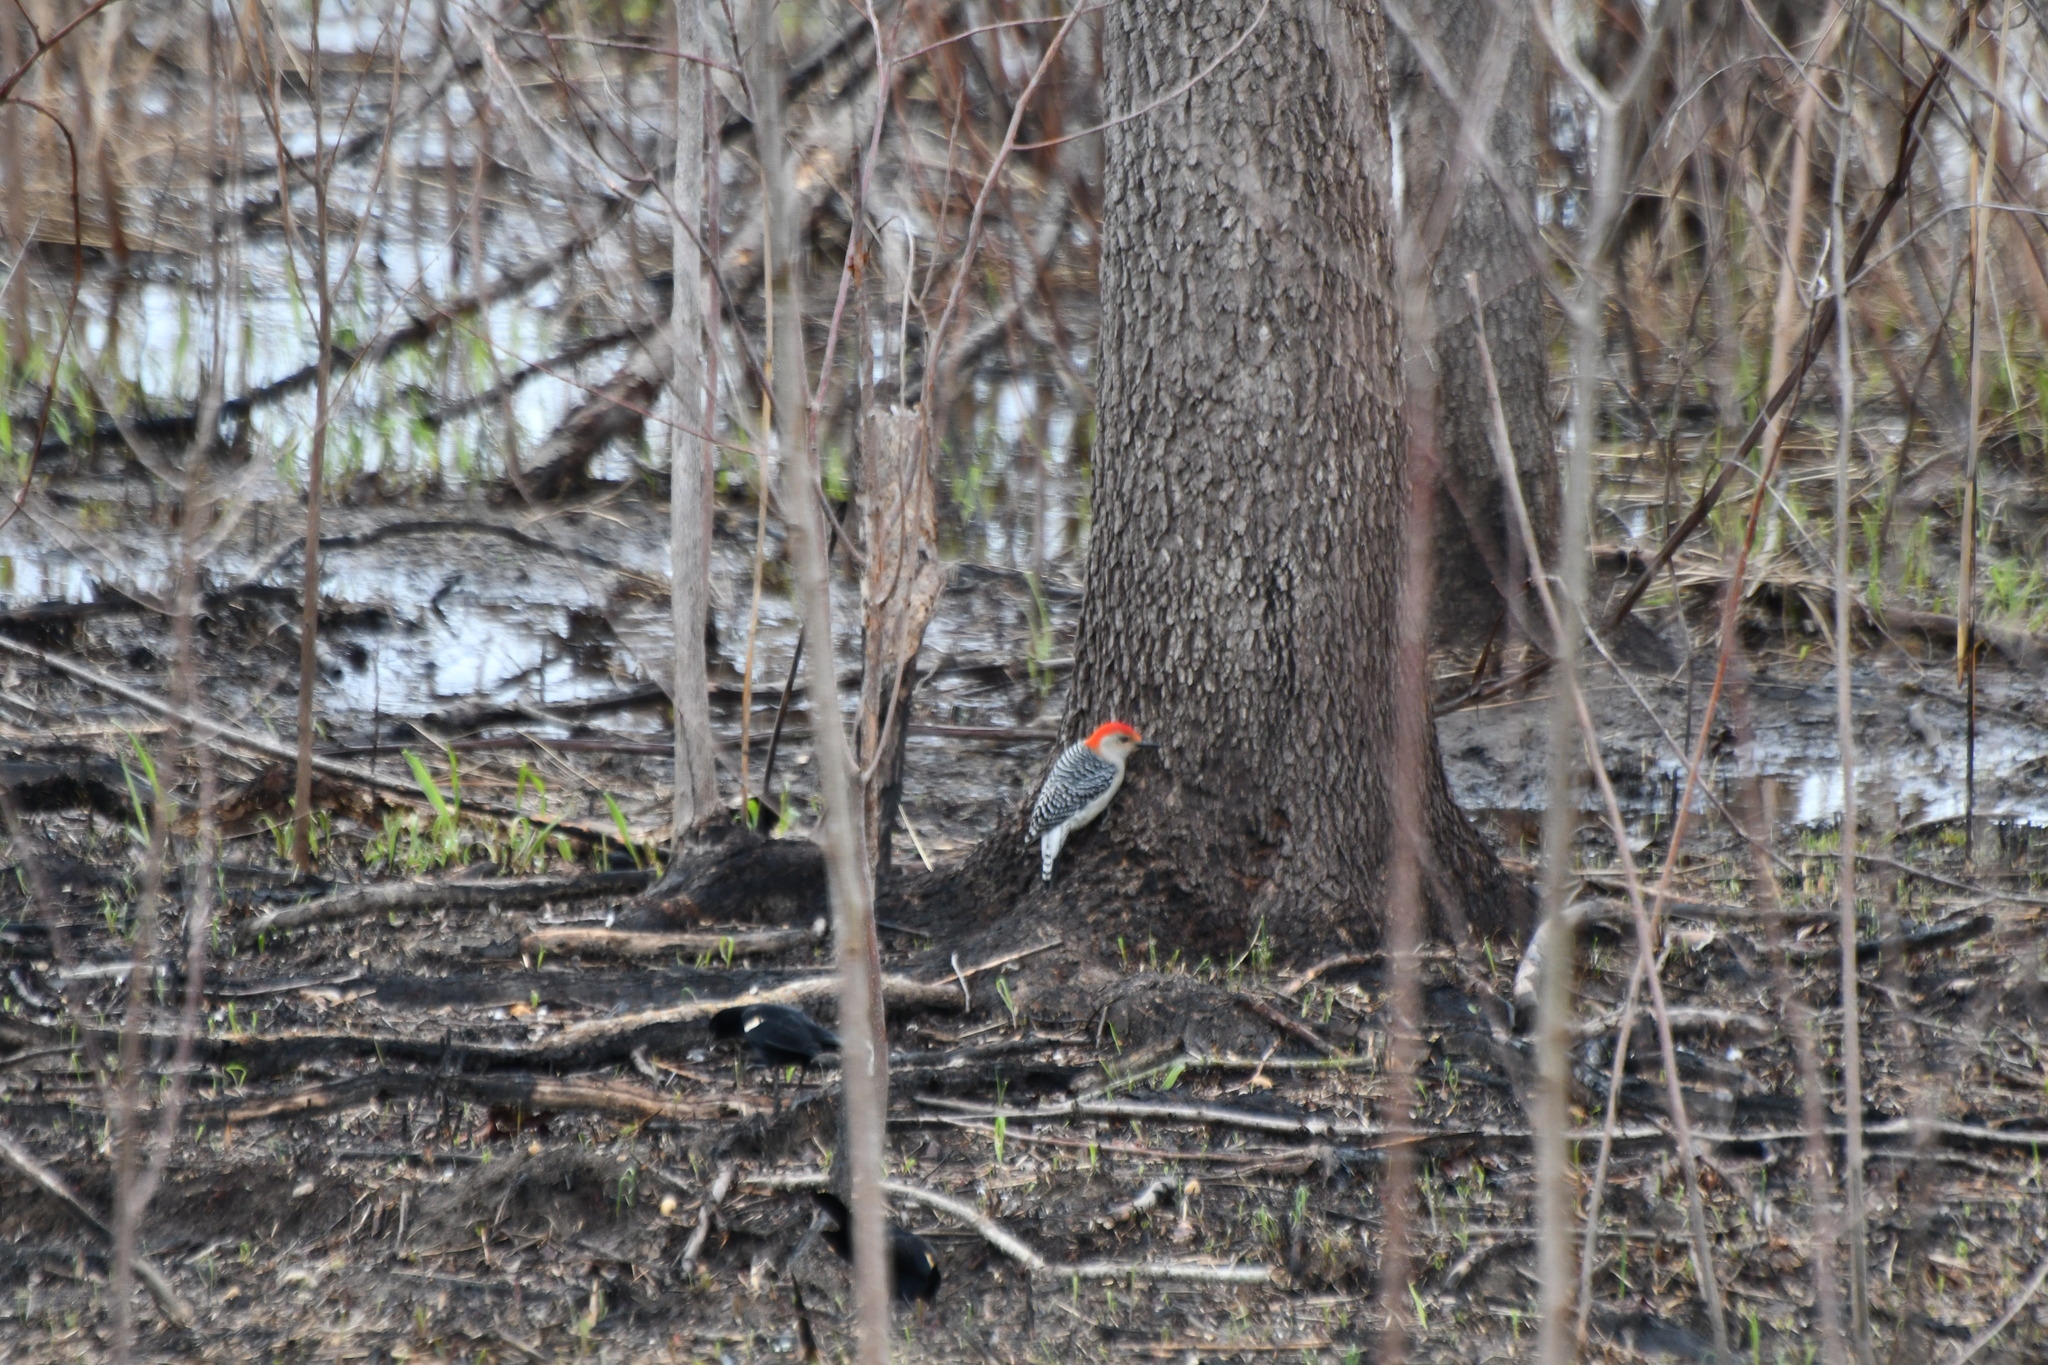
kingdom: Animalia
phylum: Chordata
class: Aves
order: Piciformes
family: Picidae
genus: Melanerpes
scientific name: Melanerpes carolinus
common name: Red-bellied woodpecker
